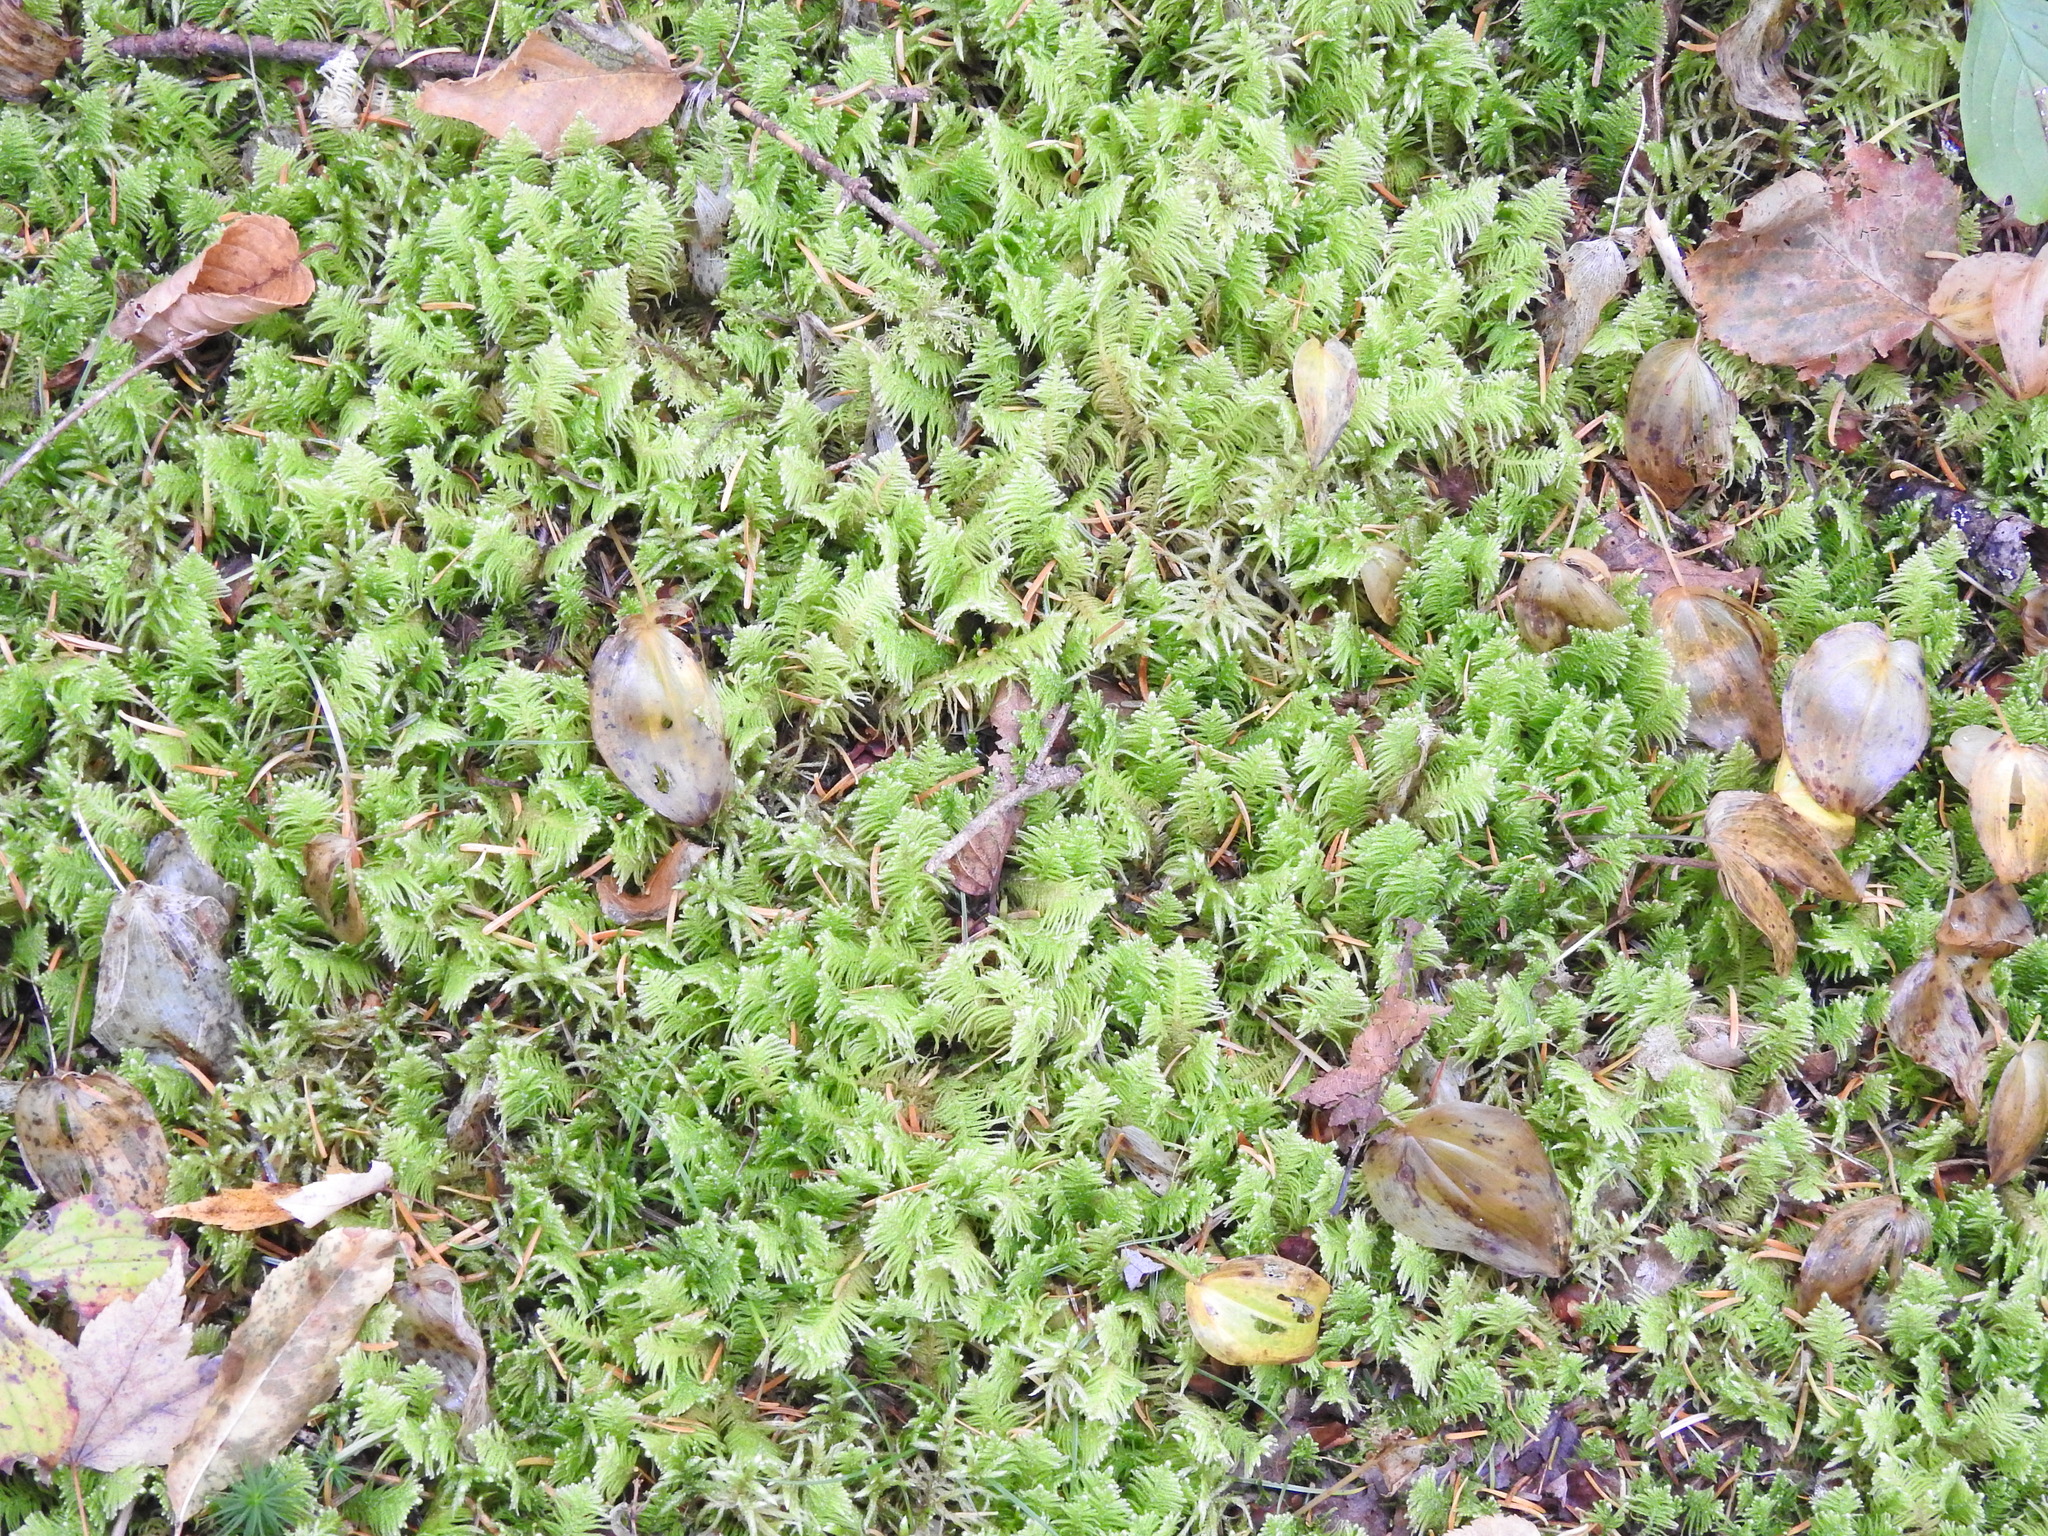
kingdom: Plantae
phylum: Bryophyta
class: Bryopsida
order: Hypnales
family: Pylaisiaceae
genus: Ptilium
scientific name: Ptilium crista-castrensis
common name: Knight's plume moss
